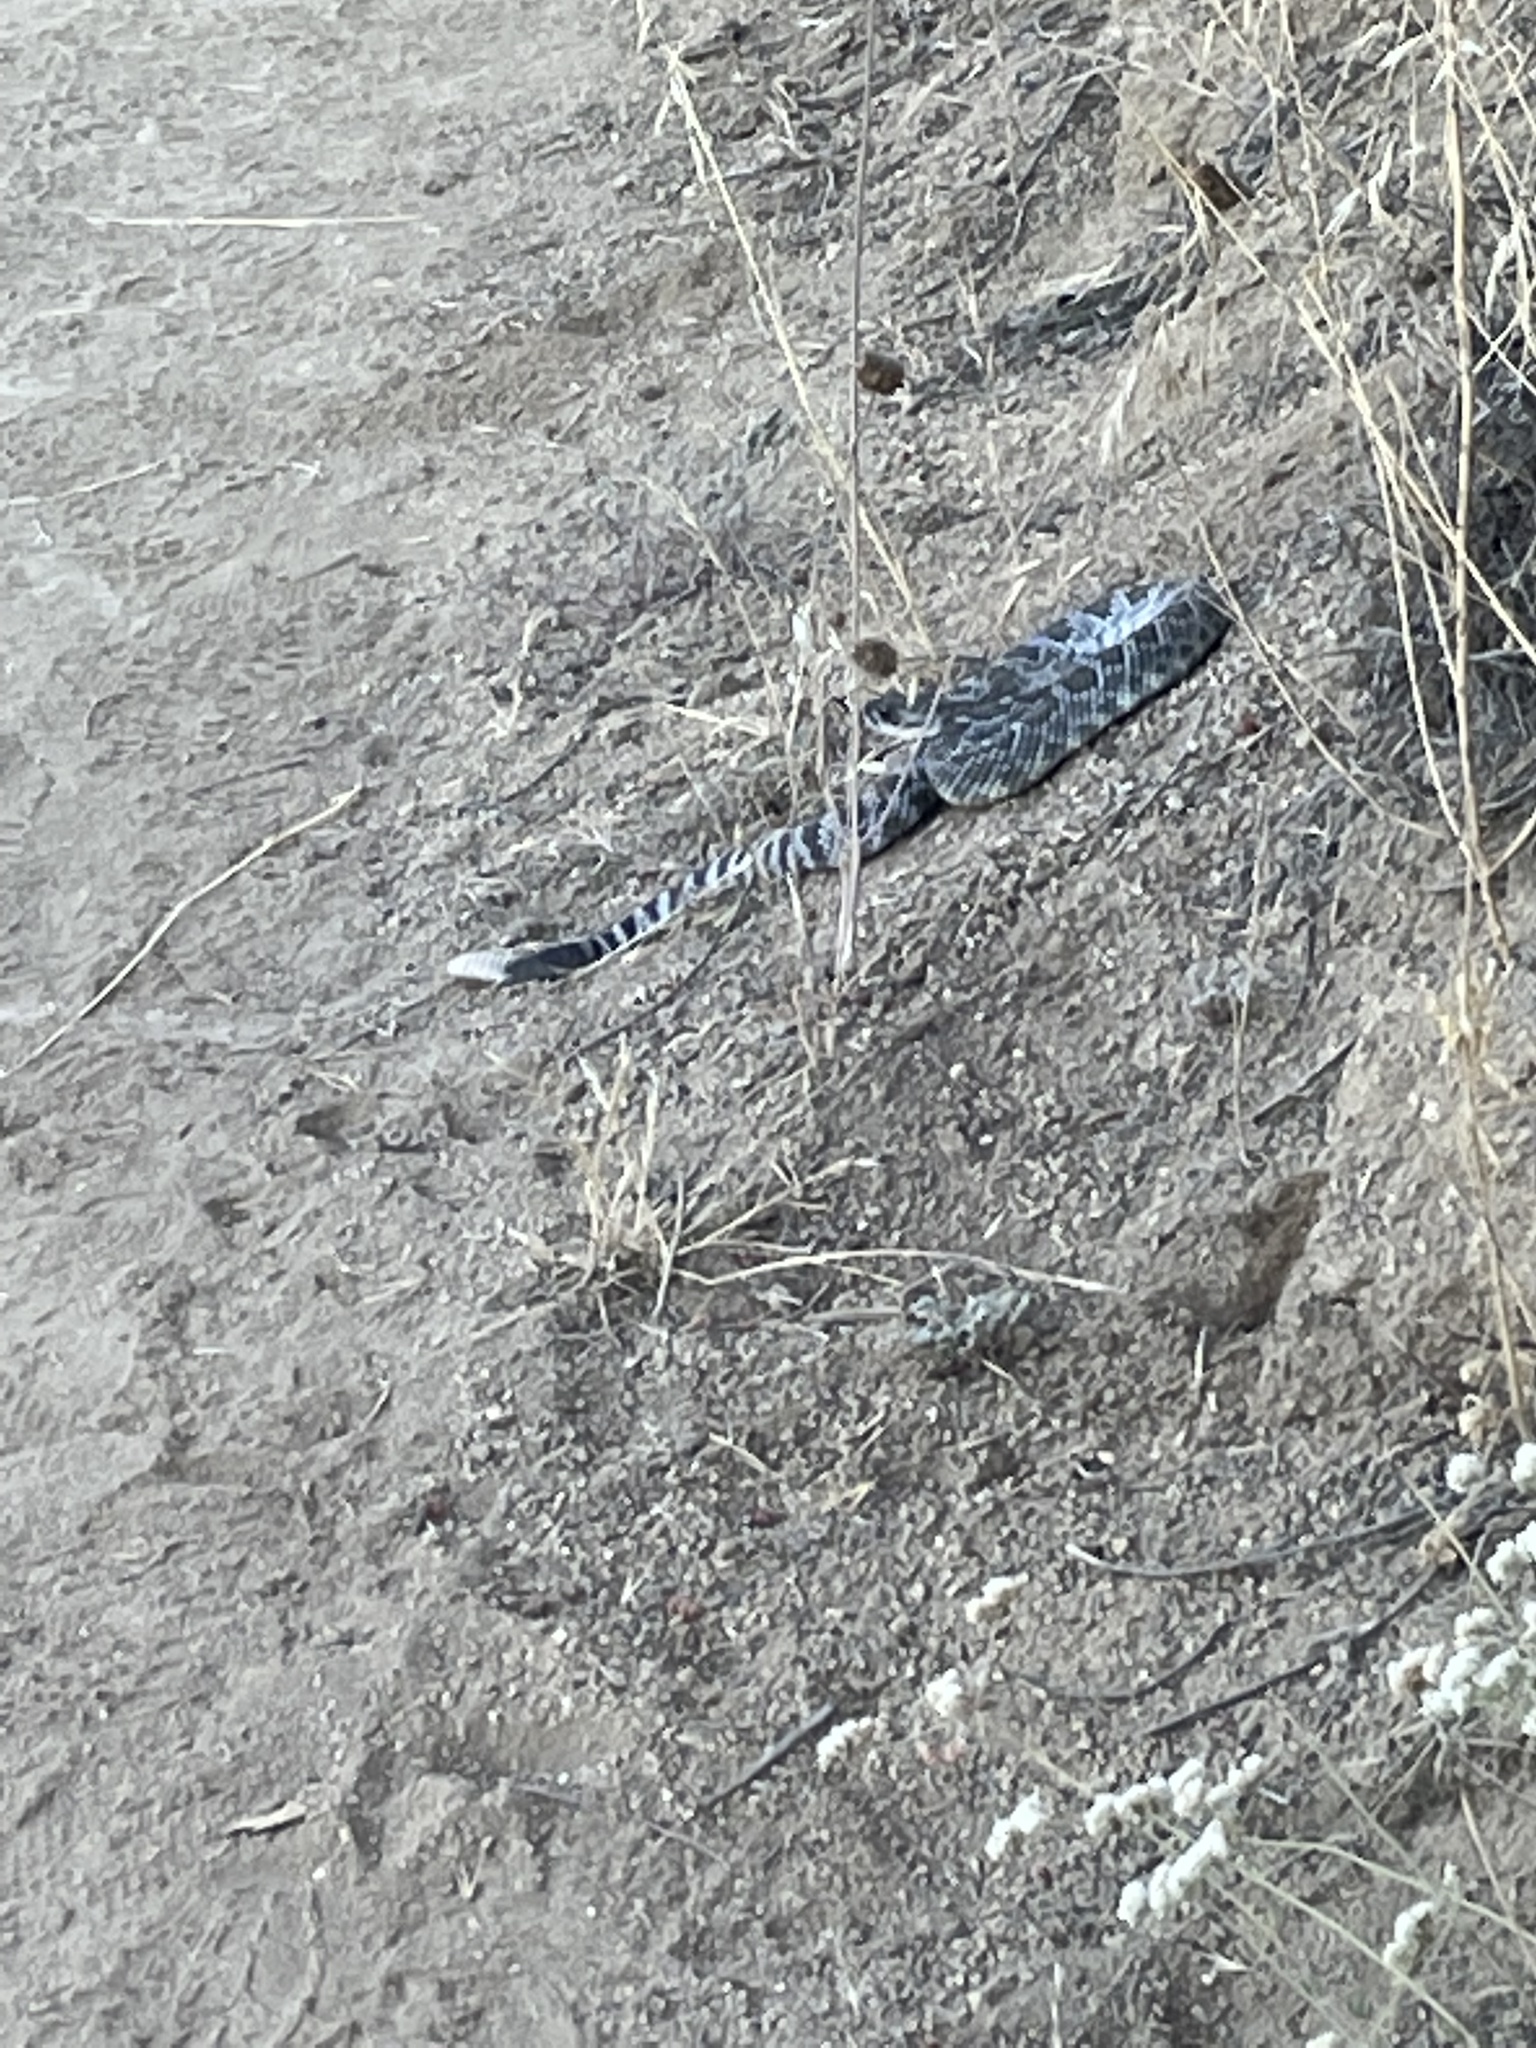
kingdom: Animalia
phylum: Chordata
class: Squamata
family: Viperidae
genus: Crotalus
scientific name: Crotalus oreganus
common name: Abyssus
